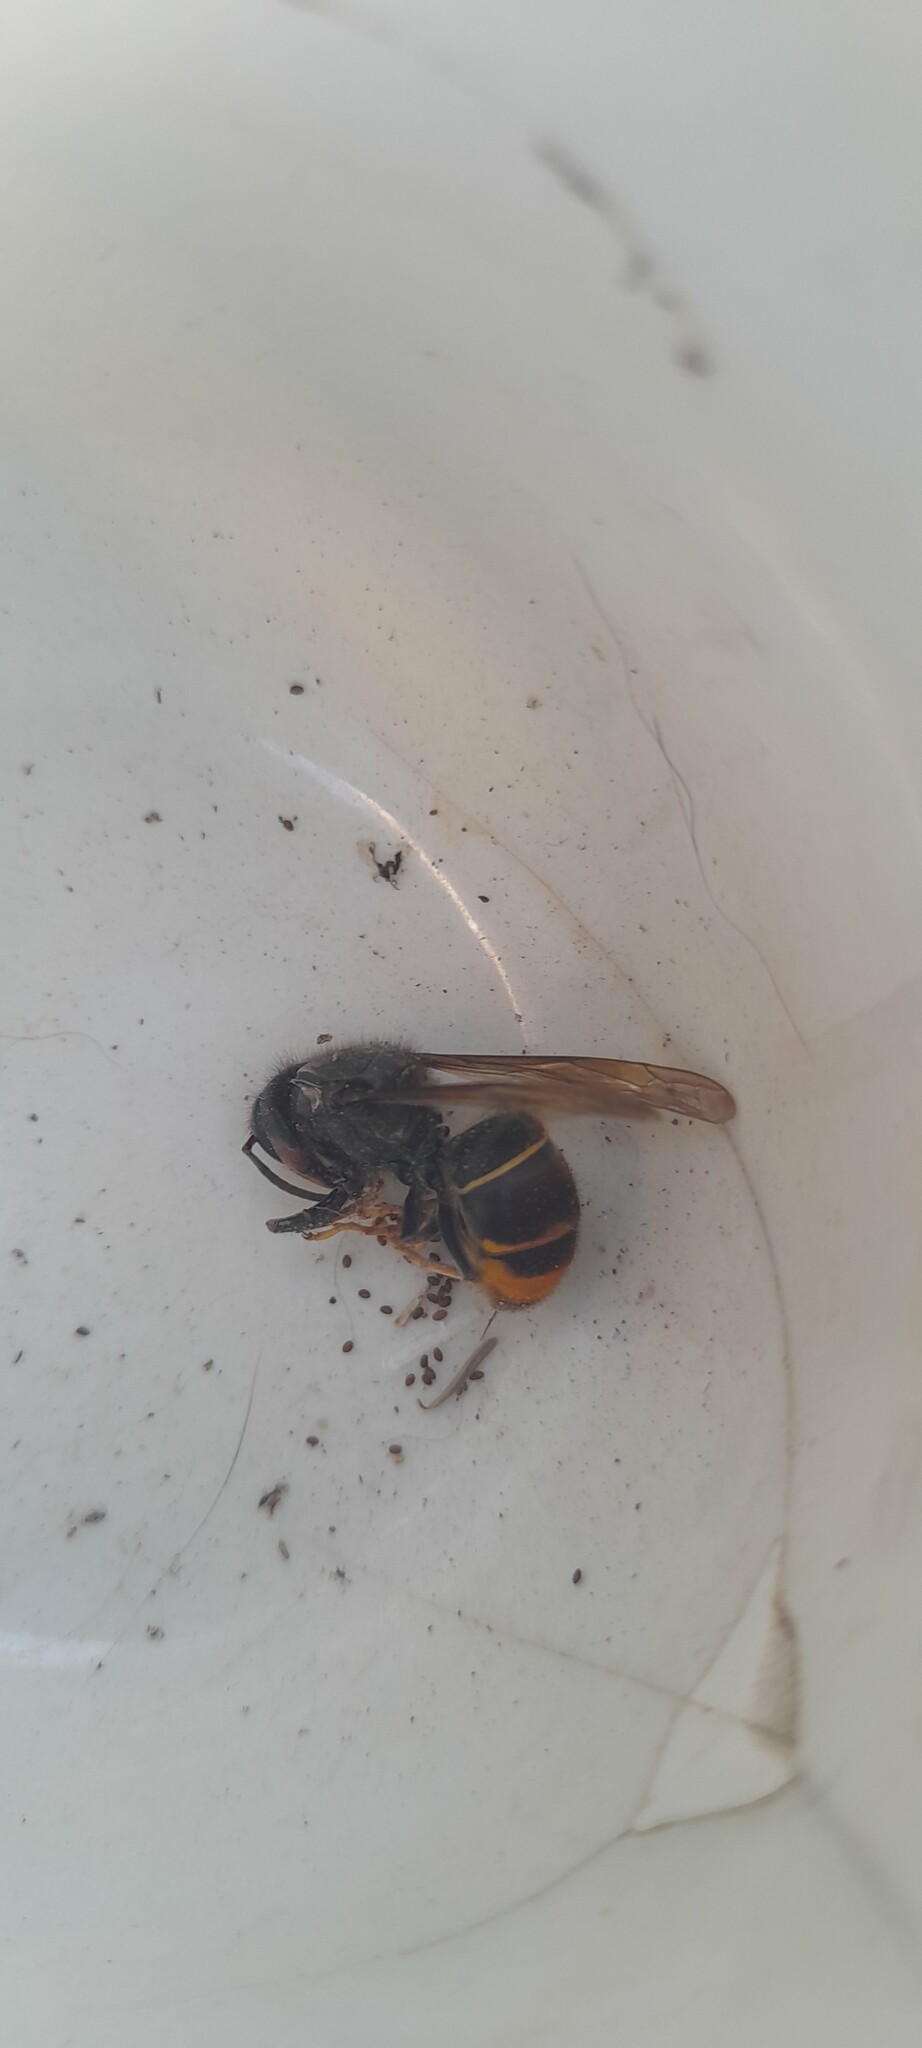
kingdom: Animalia
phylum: Arthropoda
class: Insecta
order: Hymenoptera
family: Vespidae
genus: Vespa
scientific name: Vespa velutina
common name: Asian hornet
